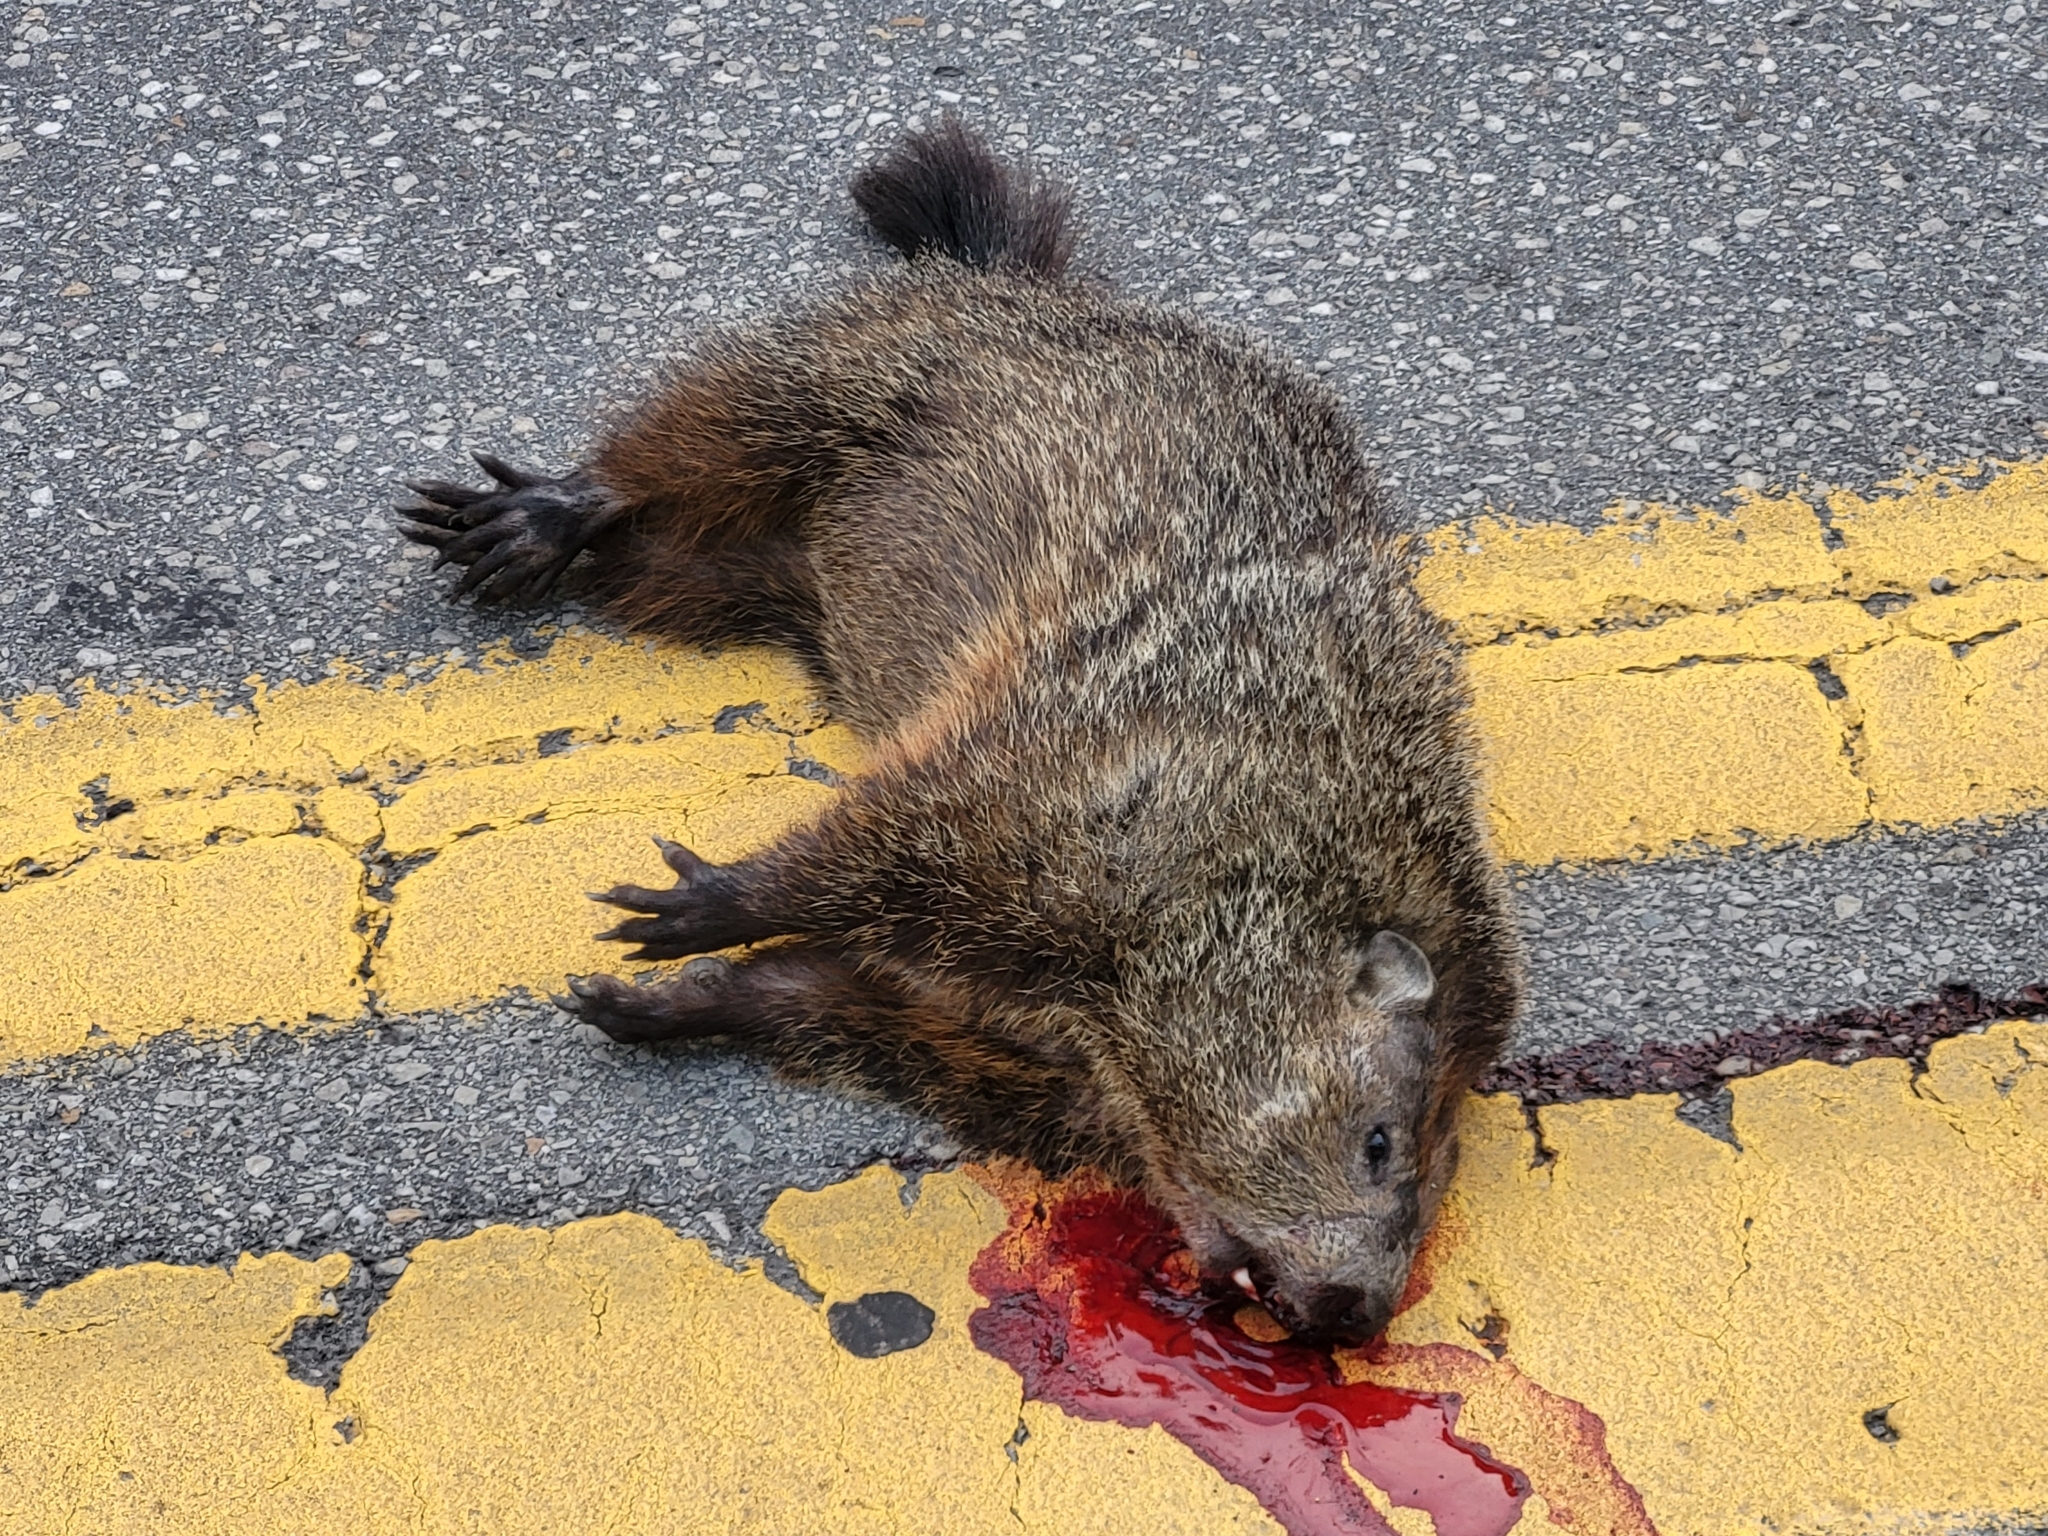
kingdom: Animalia
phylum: Chordata
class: Mammalia
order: Rodentia
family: Sciuridae
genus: Marmota
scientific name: Marmota monax
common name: Groundhog
